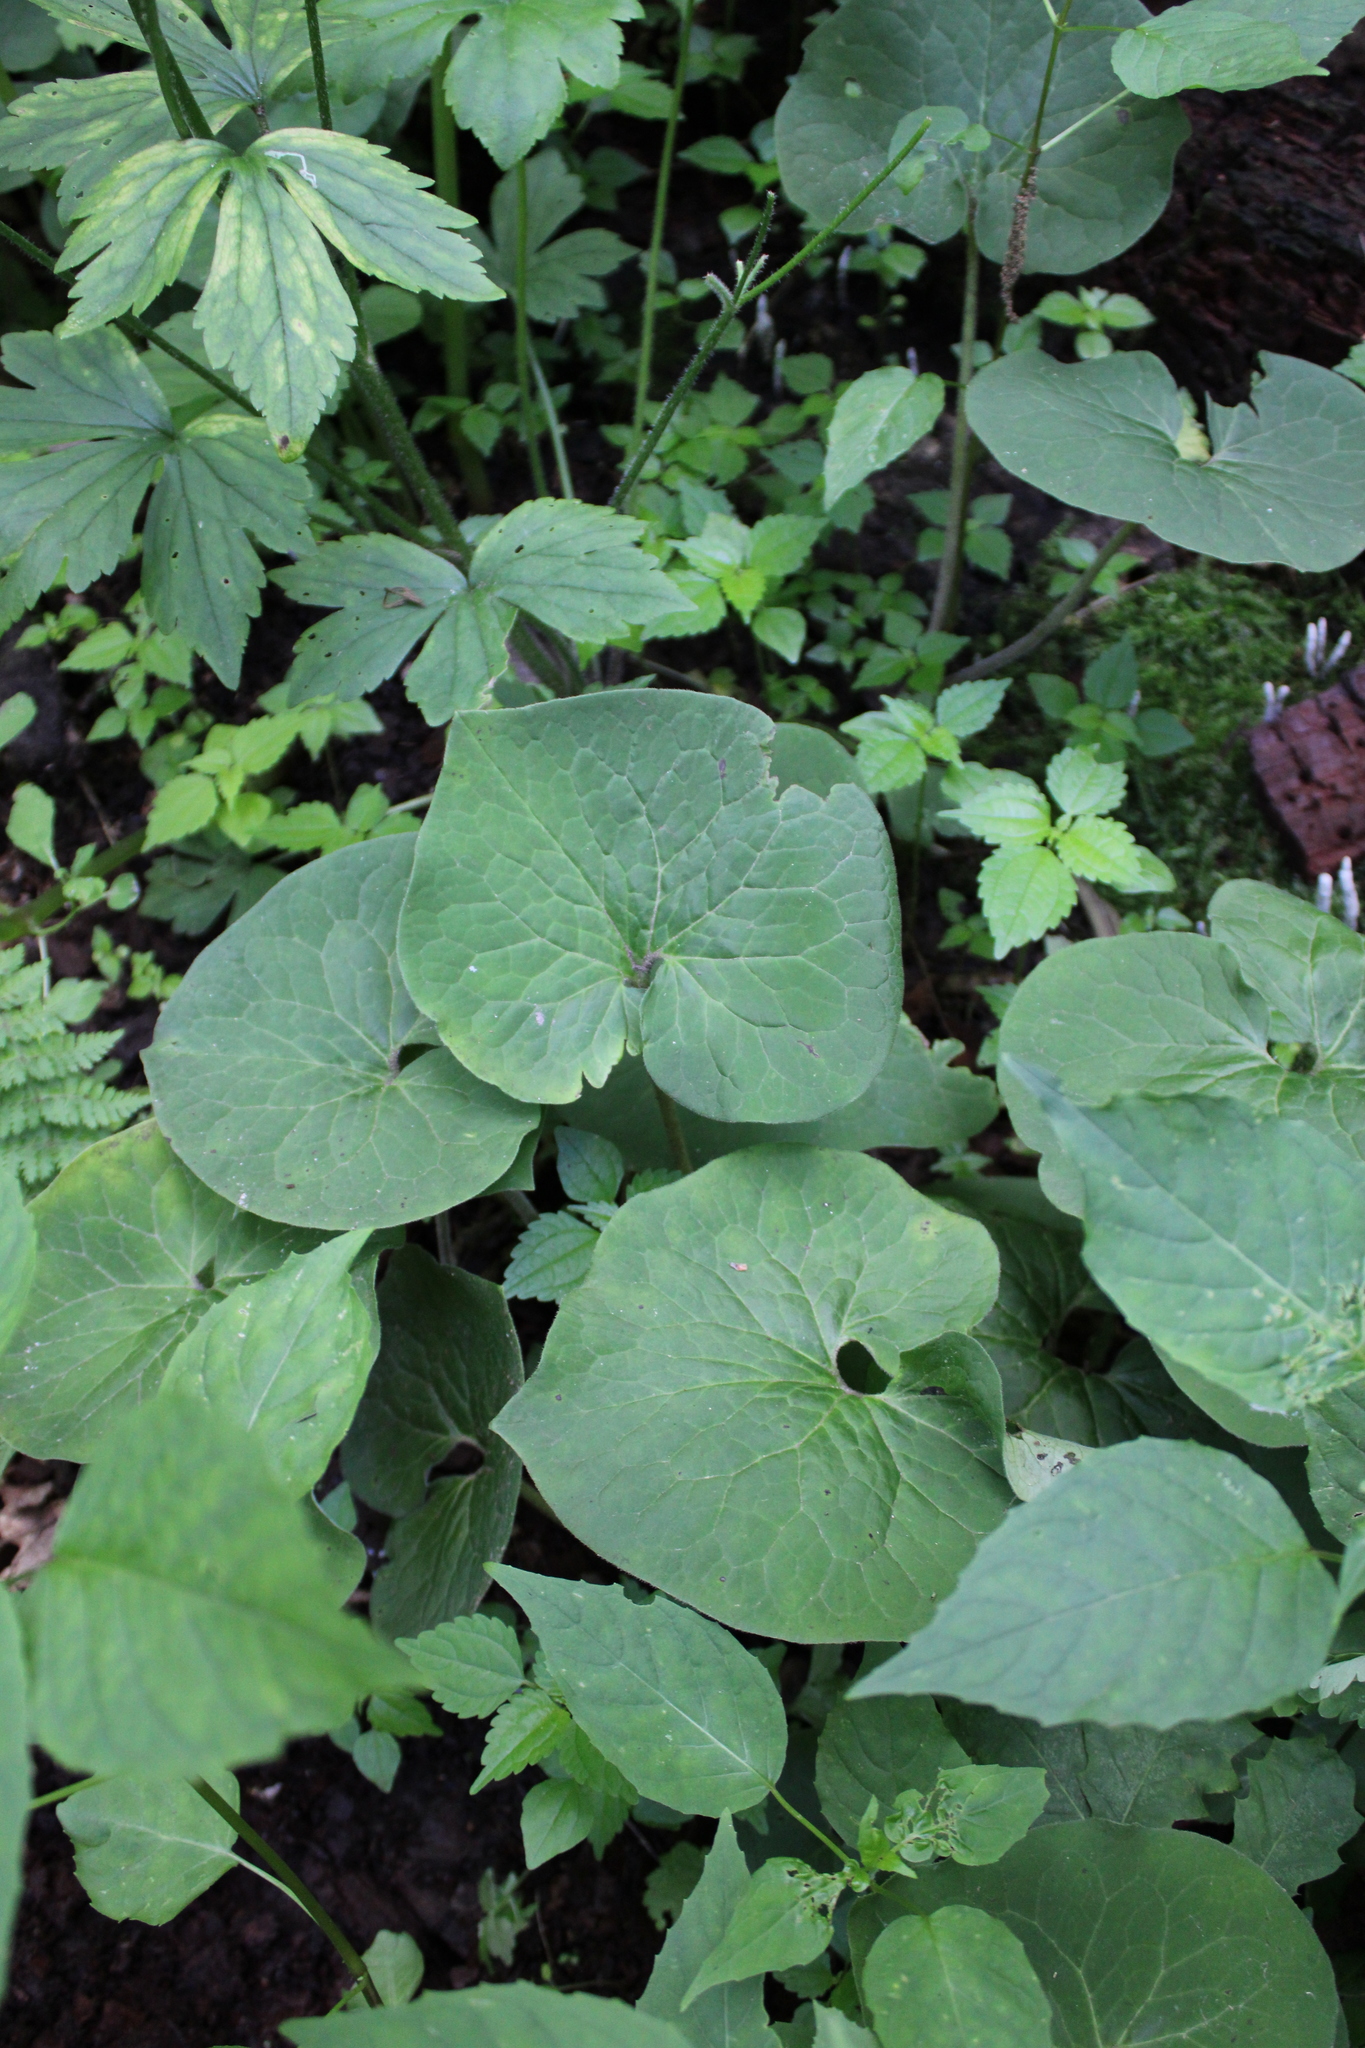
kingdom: Plantae
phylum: Tracheophyta
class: Magnoliopsida
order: Piperales
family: Aristolochiaceae
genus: Asarum
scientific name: Asarum canadense
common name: Wild ginger
